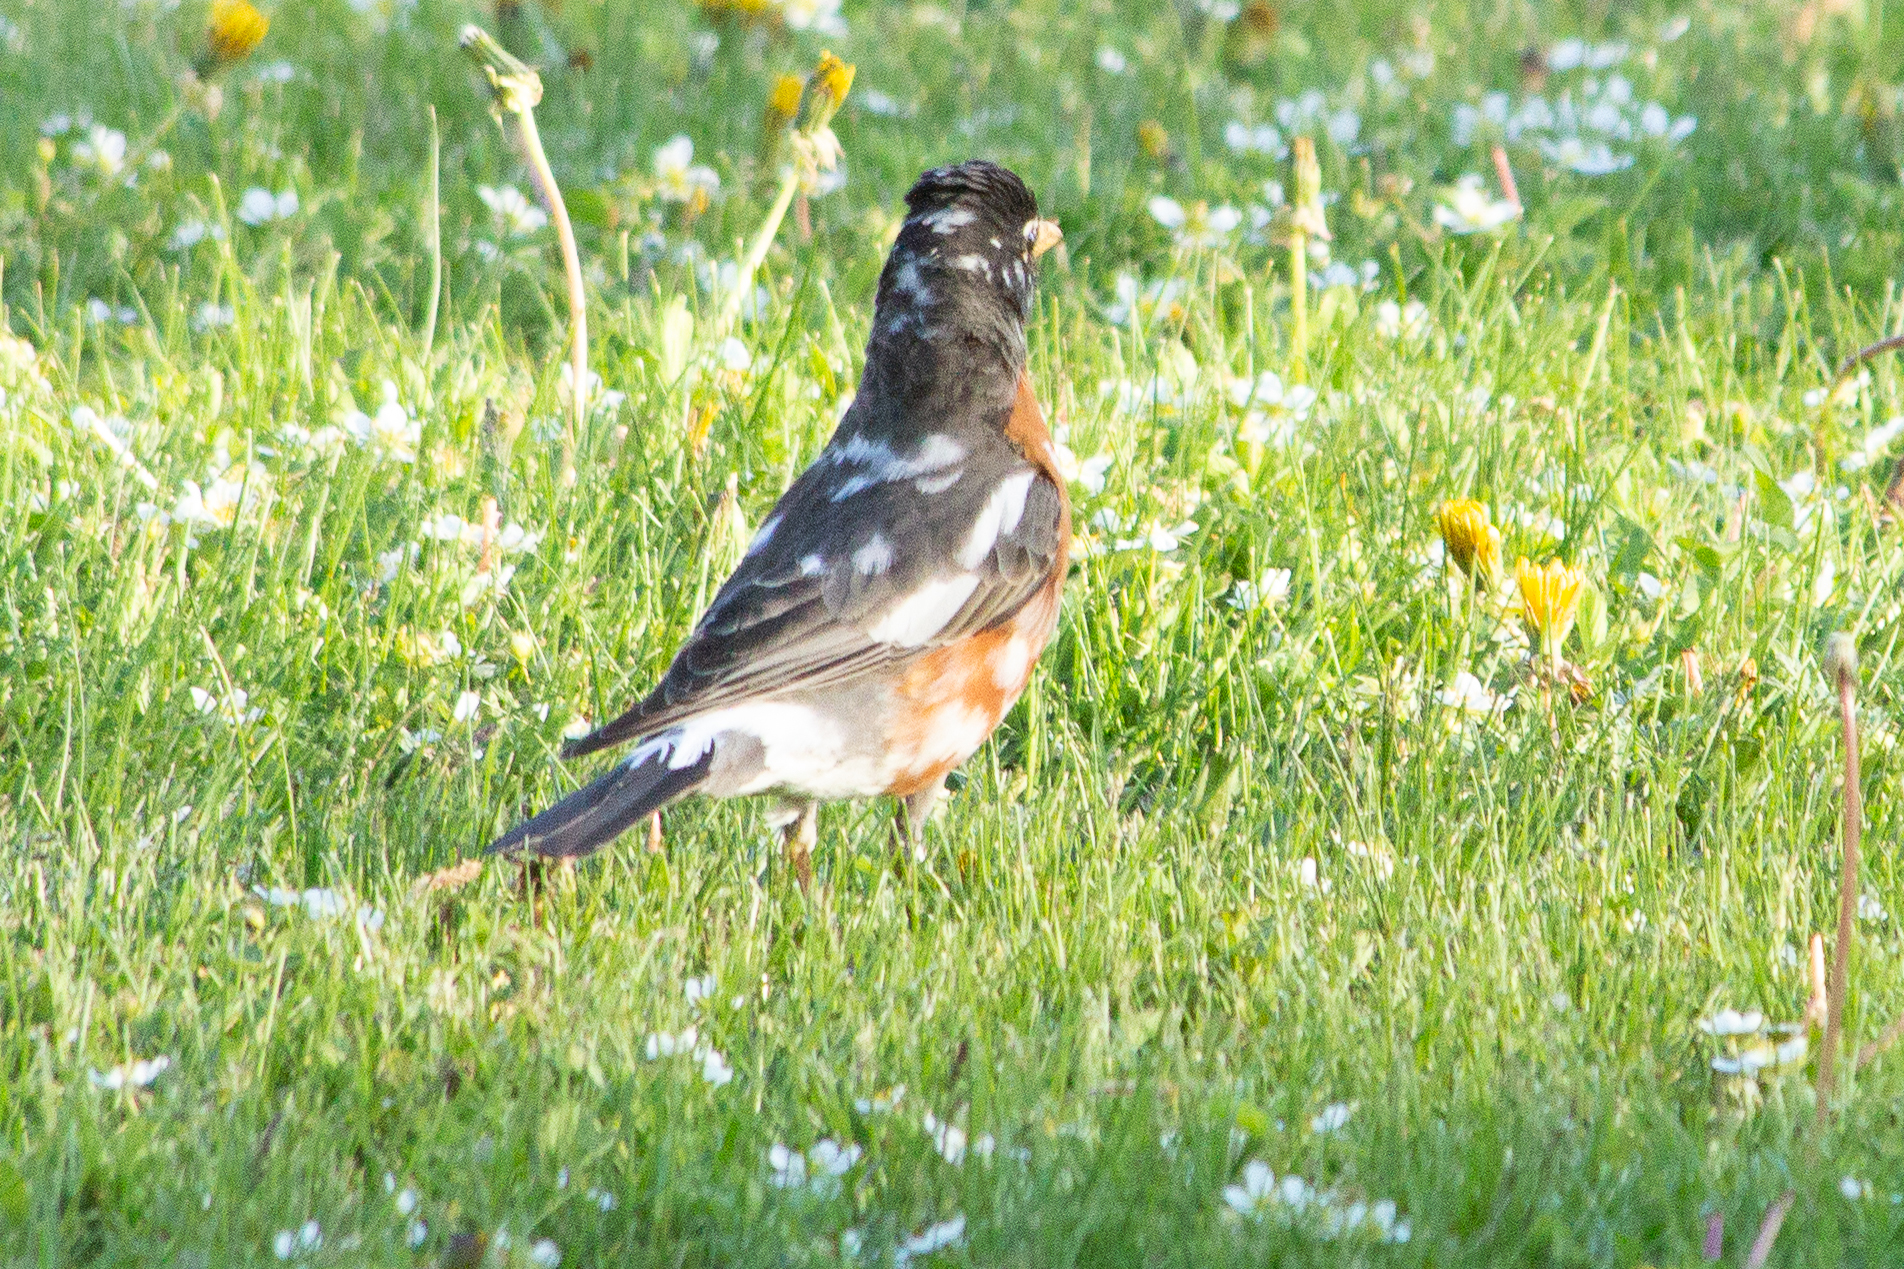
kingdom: Animalia
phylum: Chordata
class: Aves
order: Passeriformes
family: Turdidae
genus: Turdus
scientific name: Turdus migratorius
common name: American robin
